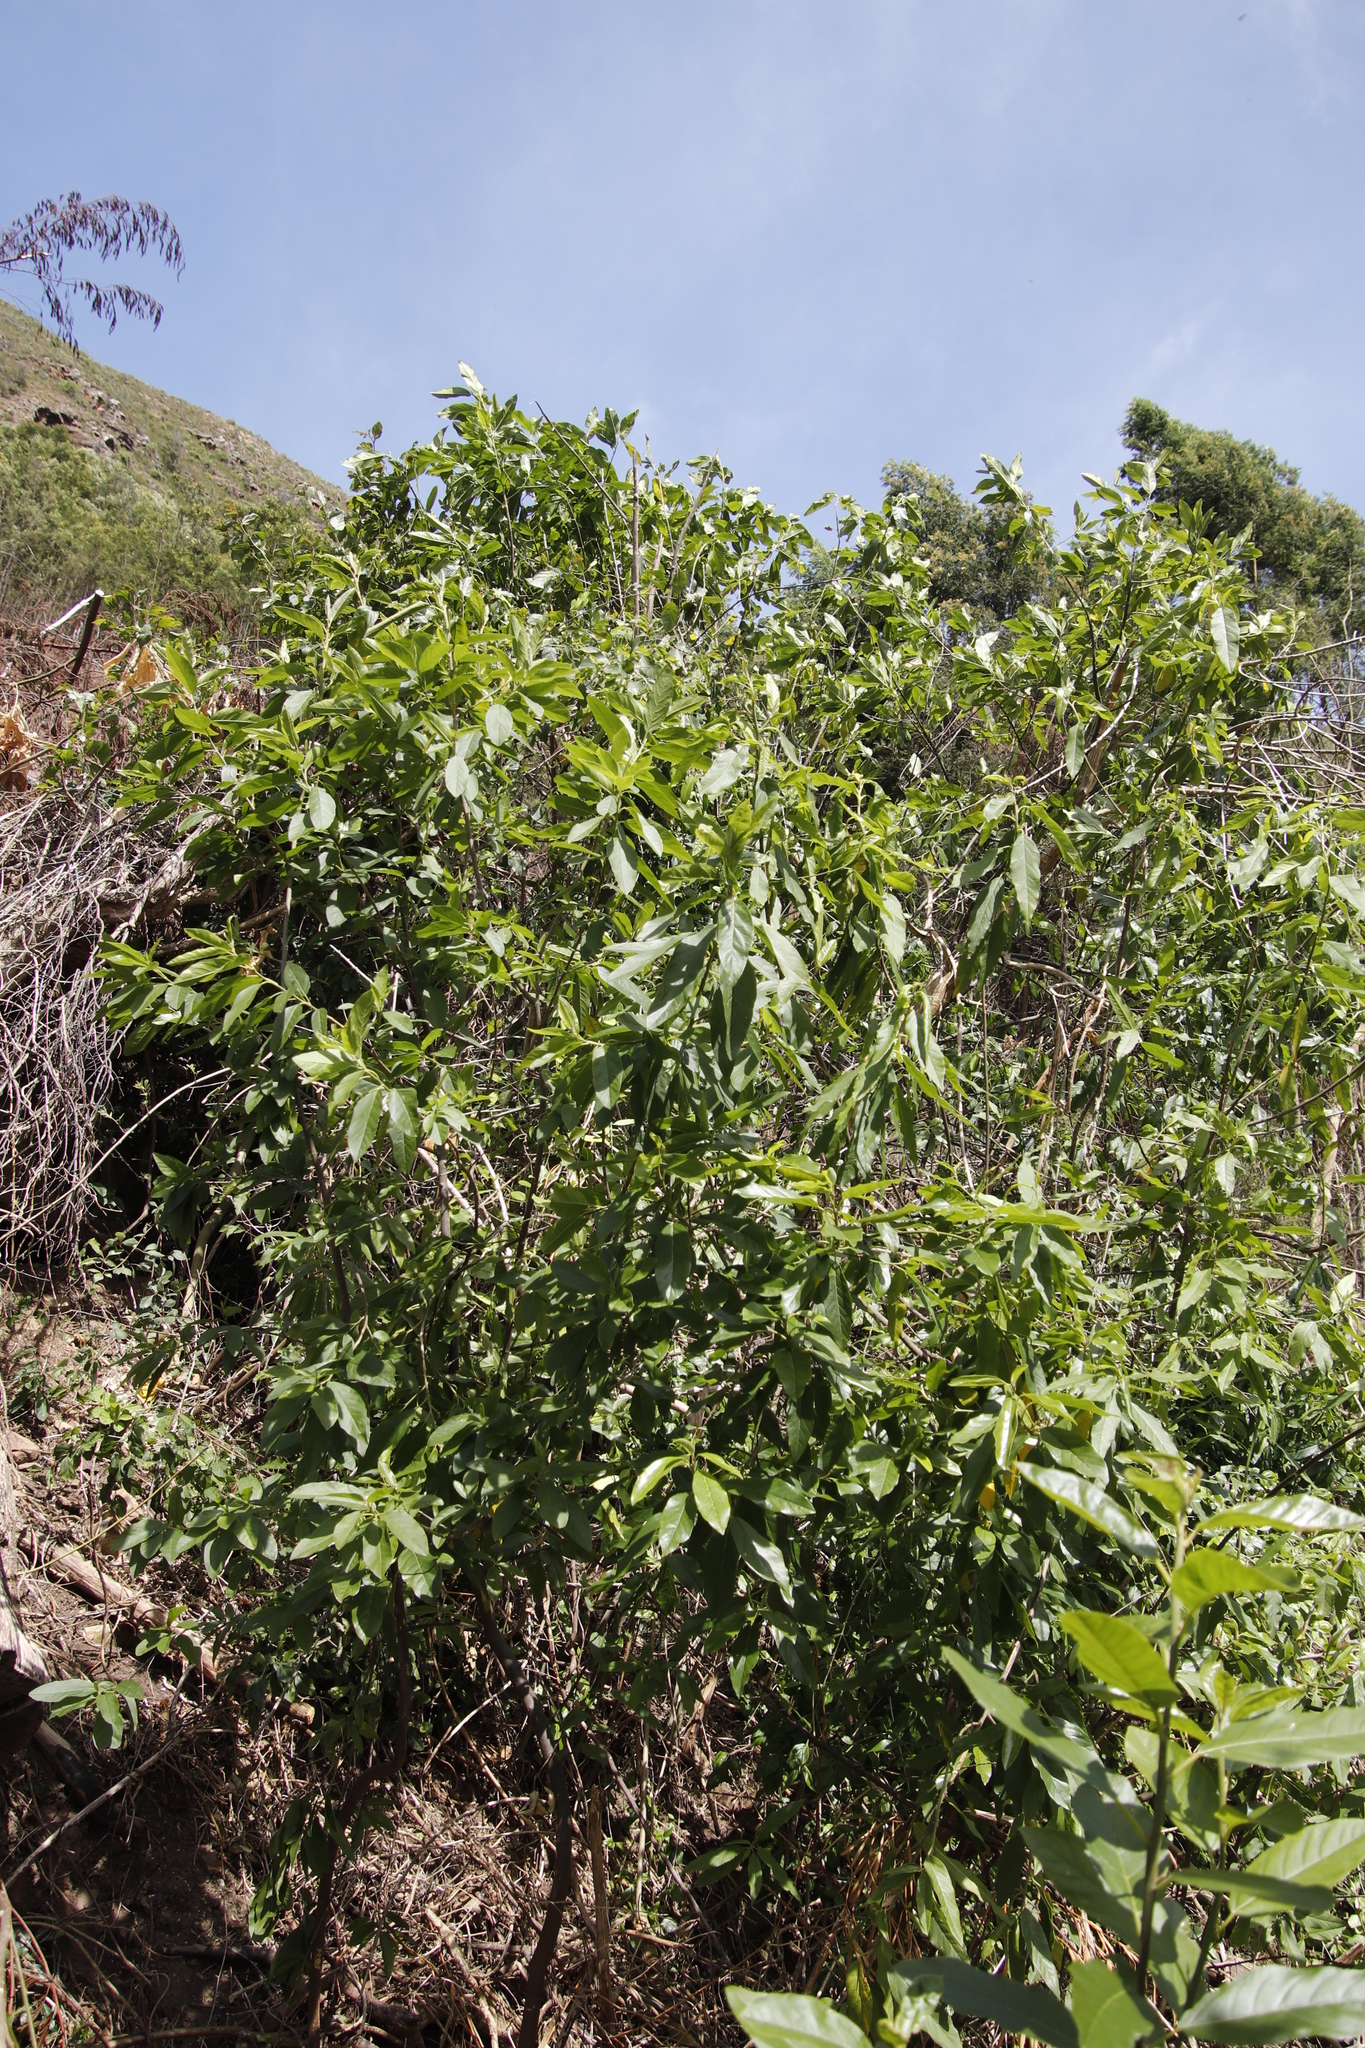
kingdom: Plantae
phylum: Tracheophyta
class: Magnoliopsida
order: Malpighiales
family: Achariaceae
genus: Kiggelaria
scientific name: Kiggelaria africana
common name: Wild peach
